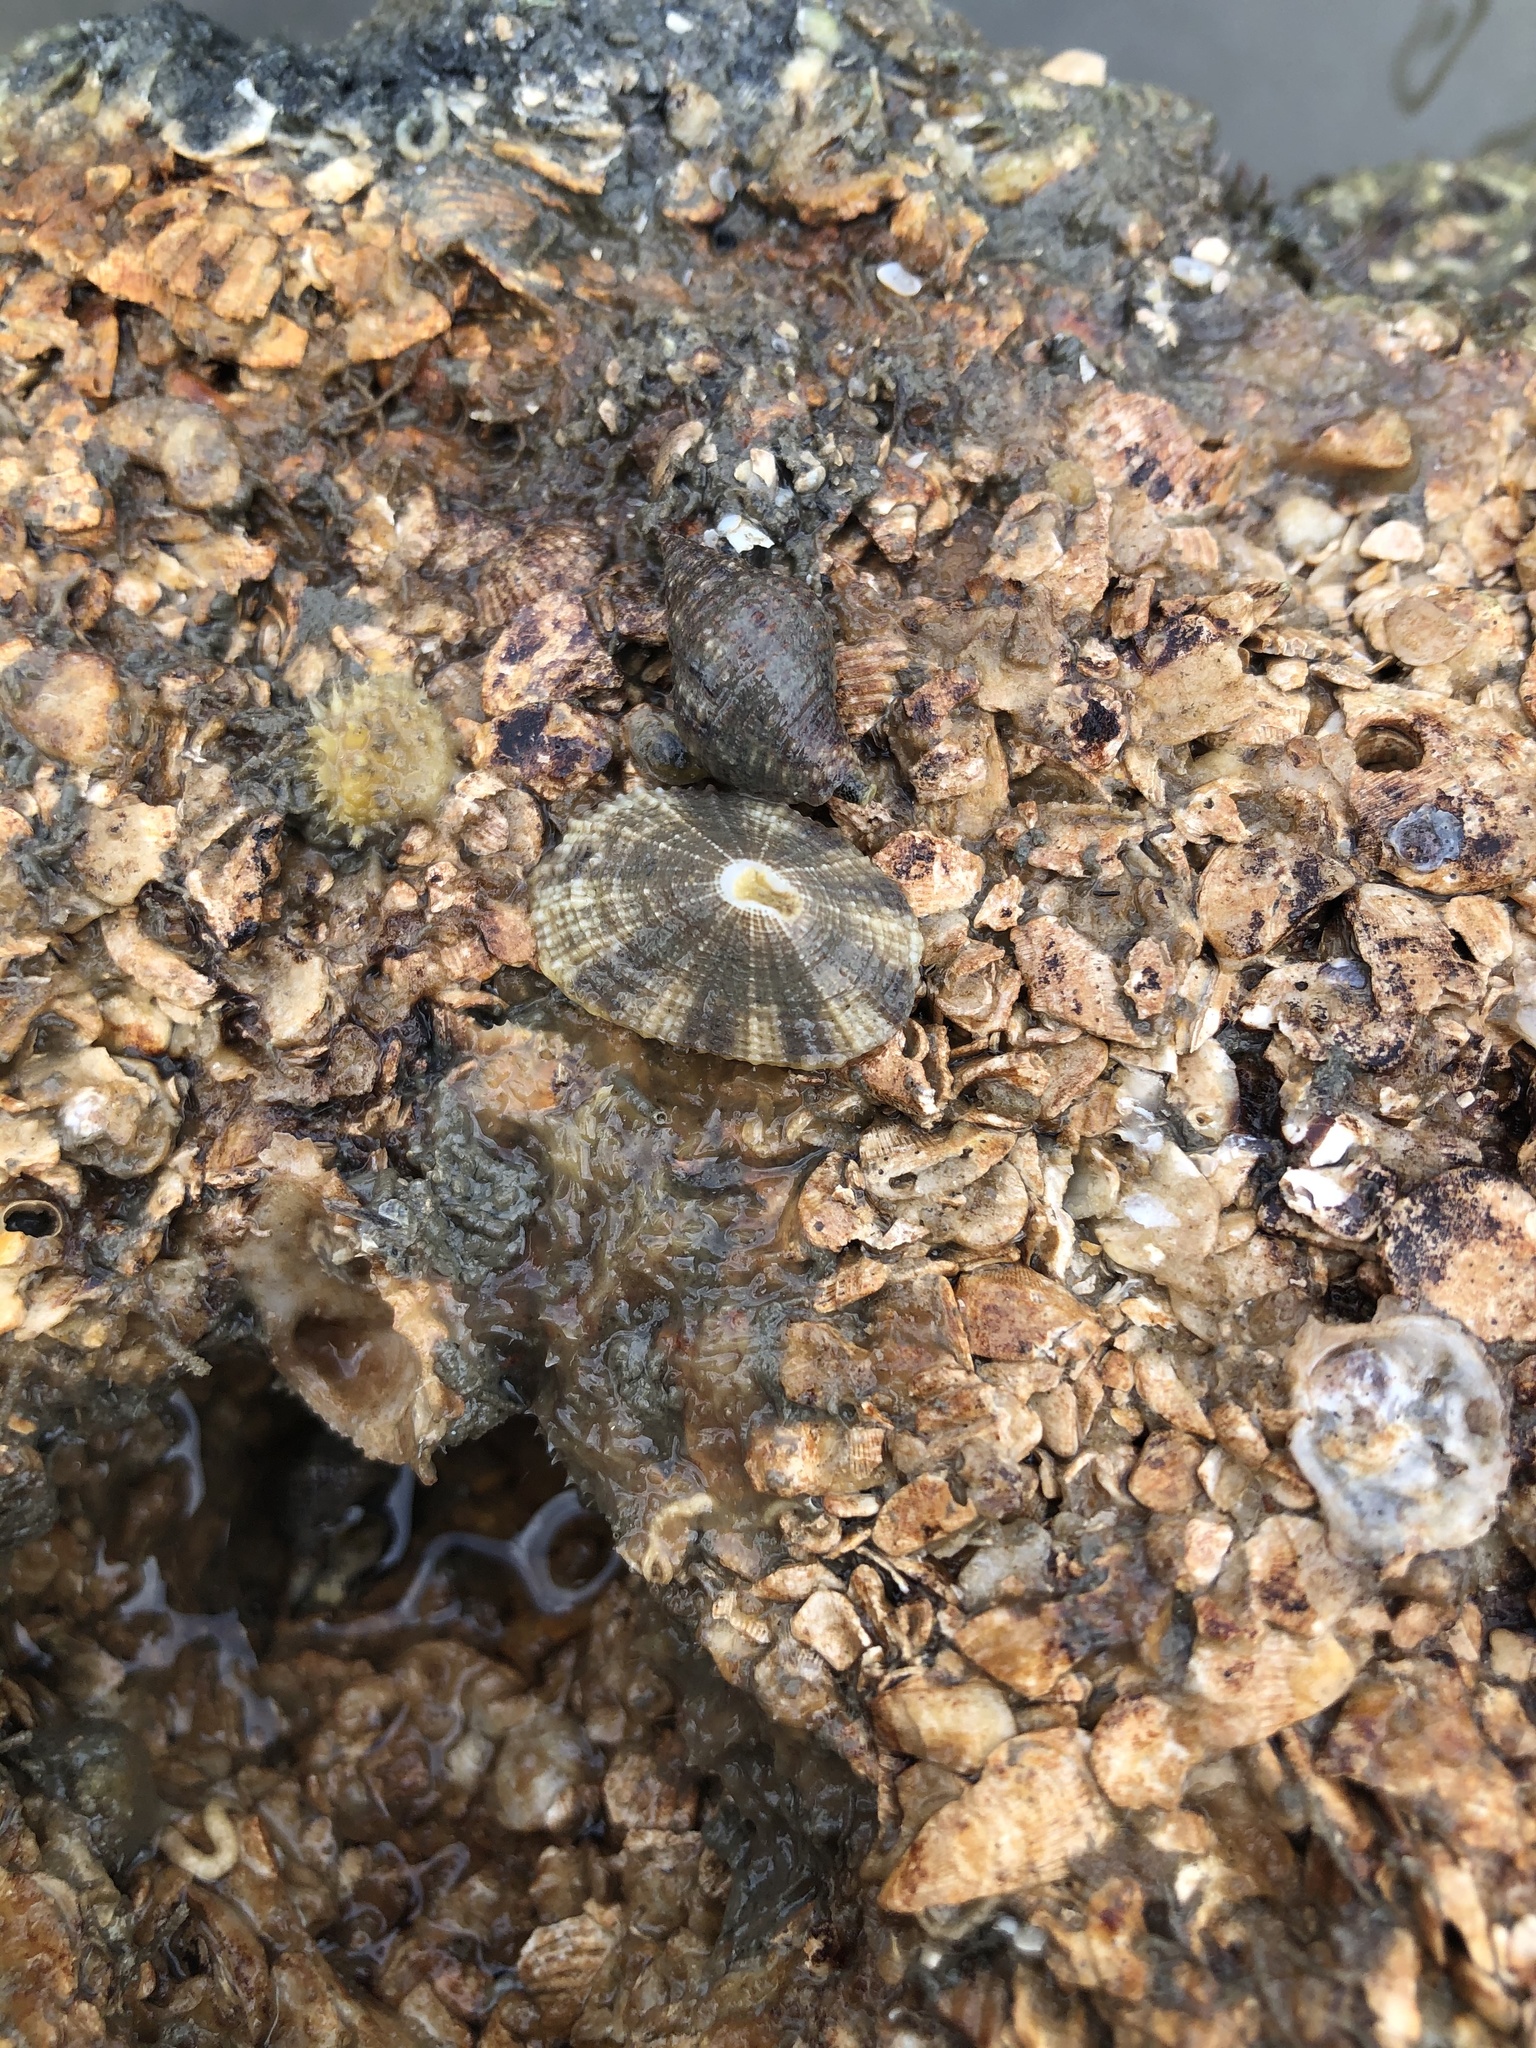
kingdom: Animalia
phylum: Mollusca
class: Gastropoda
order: Lepetellida
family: Fissurellidae
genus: Diodora
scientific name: Diodora cayenensis
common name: Cayenne keyhole limpet
